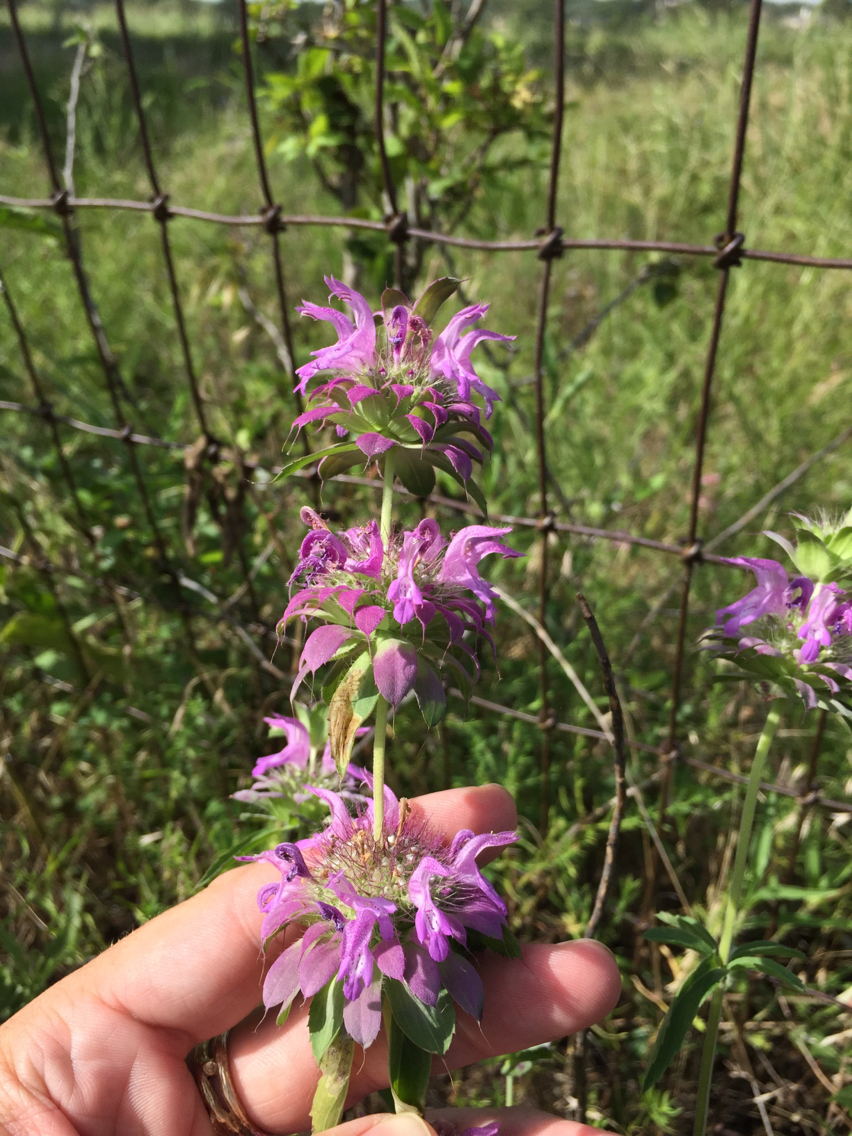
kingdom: Plantae
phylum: Tracheophyta
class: Magnoliopsida
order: Lamiales
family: Lamiaceae
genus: Monarda
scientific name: Monarda citriodora
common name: Lemon beebalm
